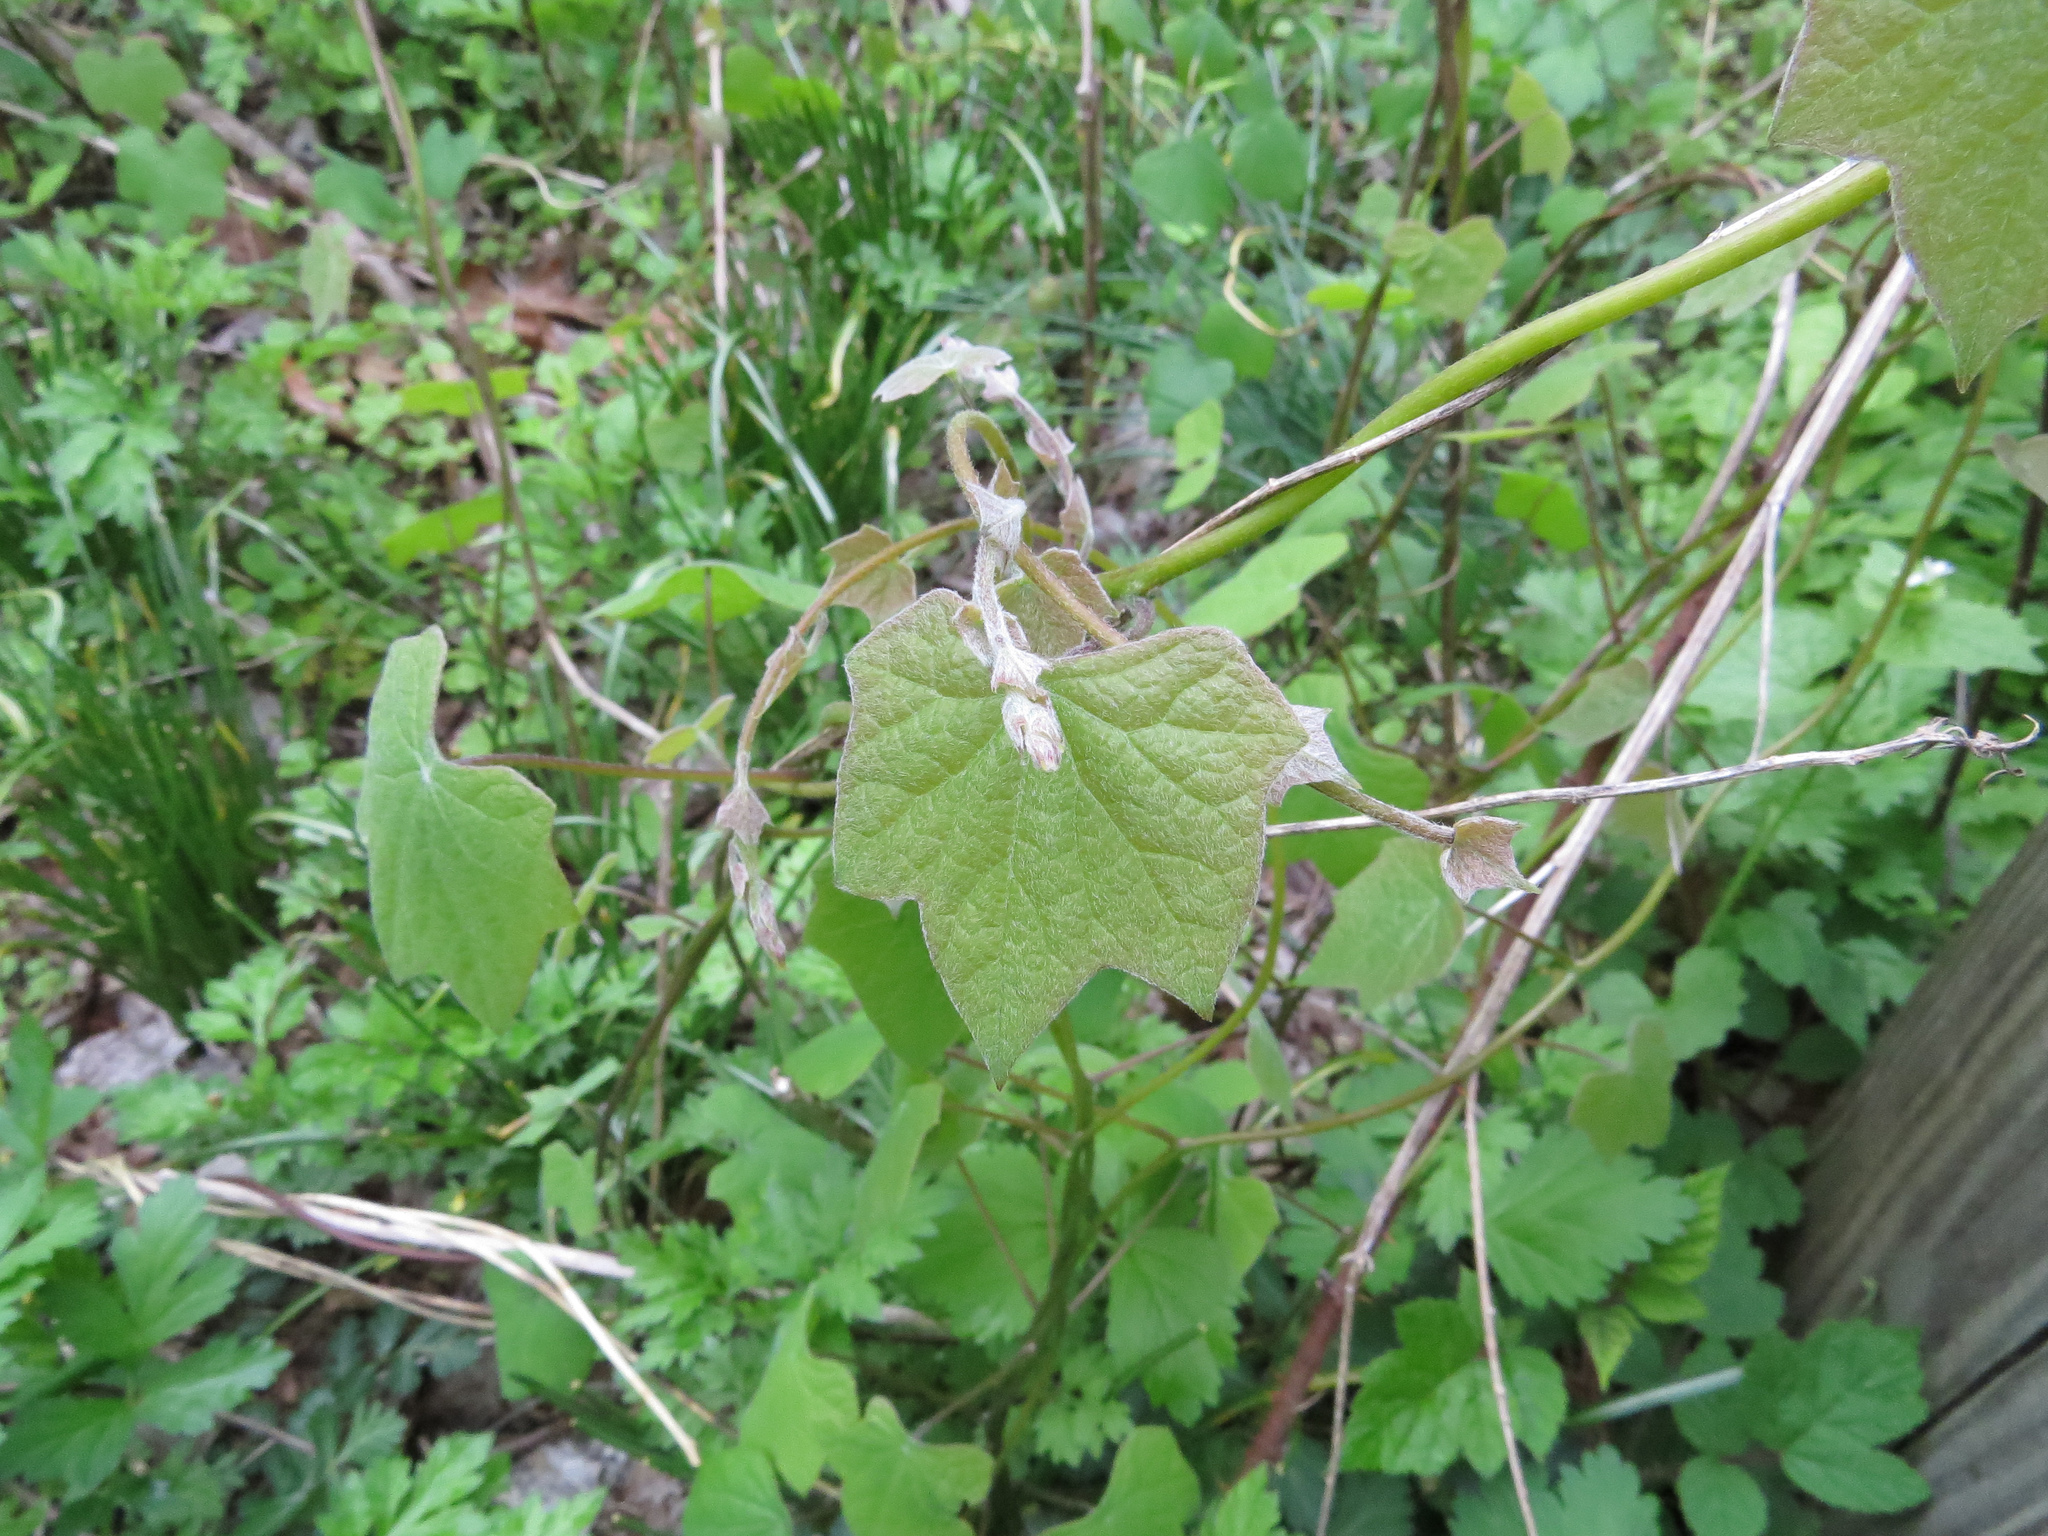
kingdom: Plantae
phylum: Tracheophyta
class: Magnoliopsida
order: Ranunculales
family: Menispermaceae
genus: Menispermum
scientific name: Menispermum canadense
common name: Moonseed
